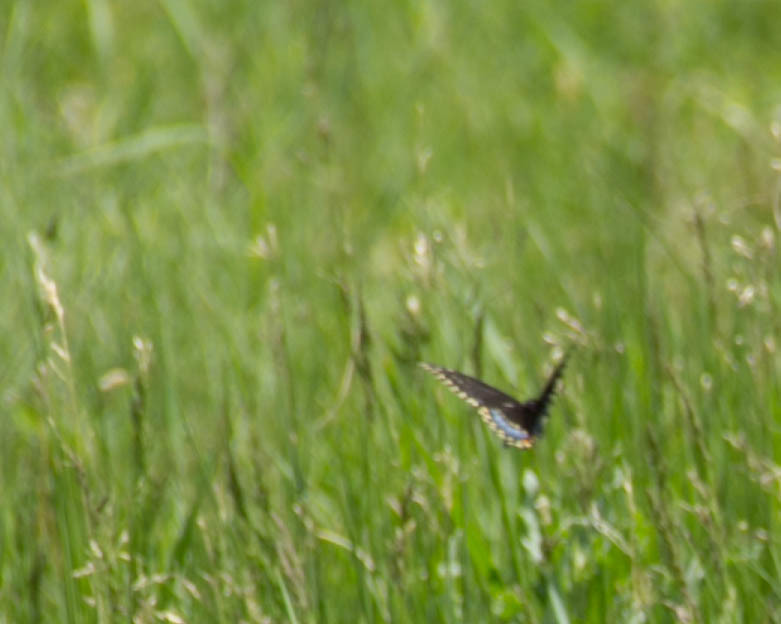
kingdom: Animalia
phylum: Arthropoda
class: Insecta
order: Lepidoptera
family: Papilionidae
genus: Papilio
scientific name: Papilio polyxenes
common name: Black swallowtail
